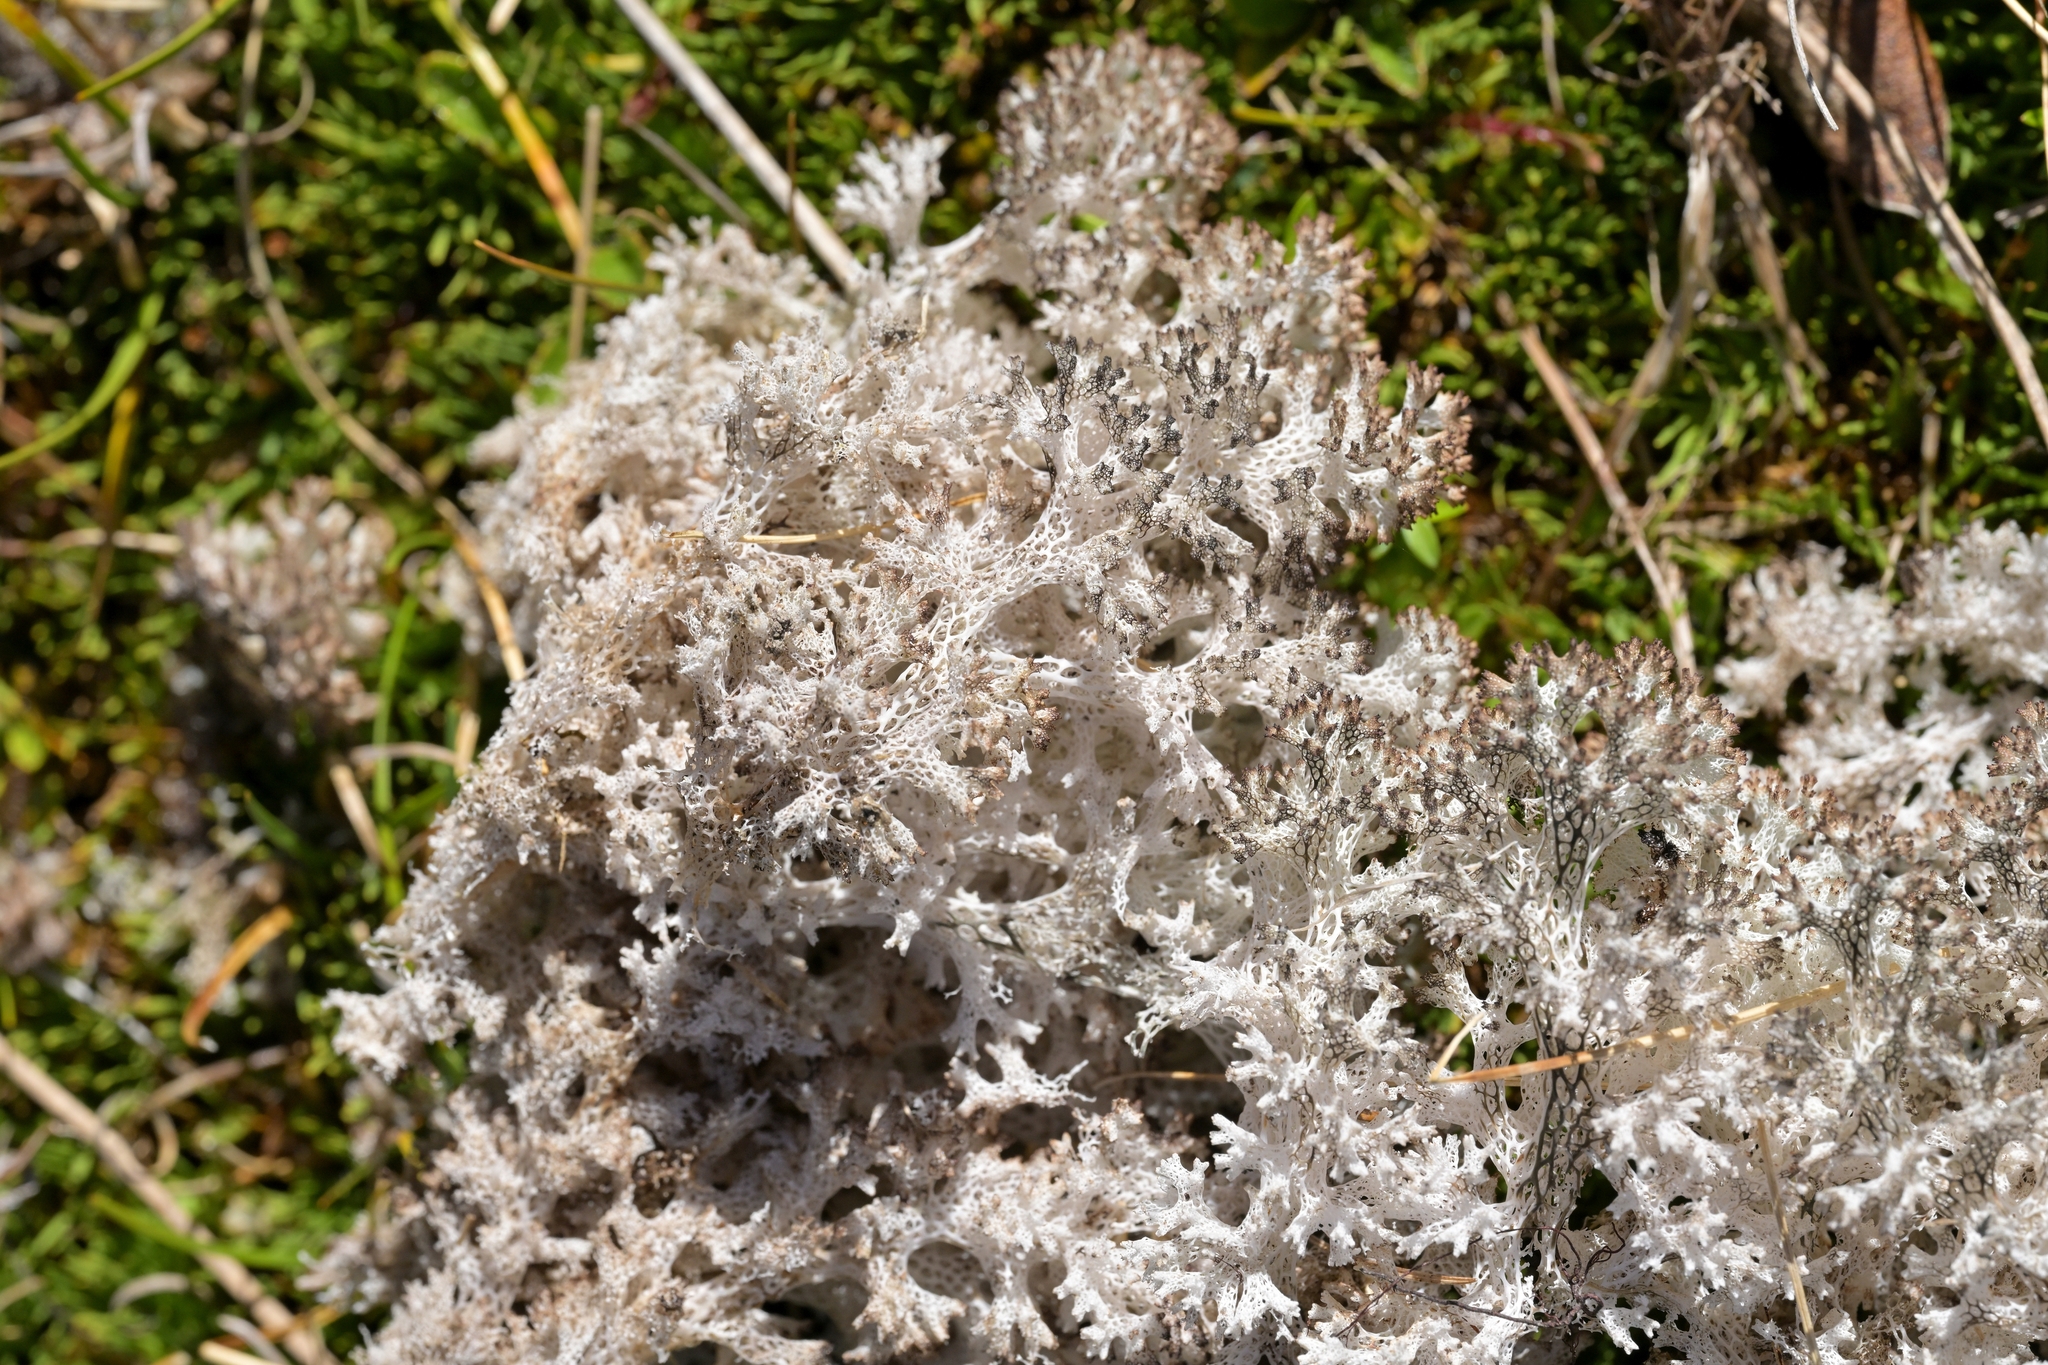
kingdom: Fungi
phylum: Ascomycota
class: Lecanoromycetes
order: Lecanorales
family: Cladoniaceae
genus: Pulchrocladia
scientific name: Pulchrocladia retipora
